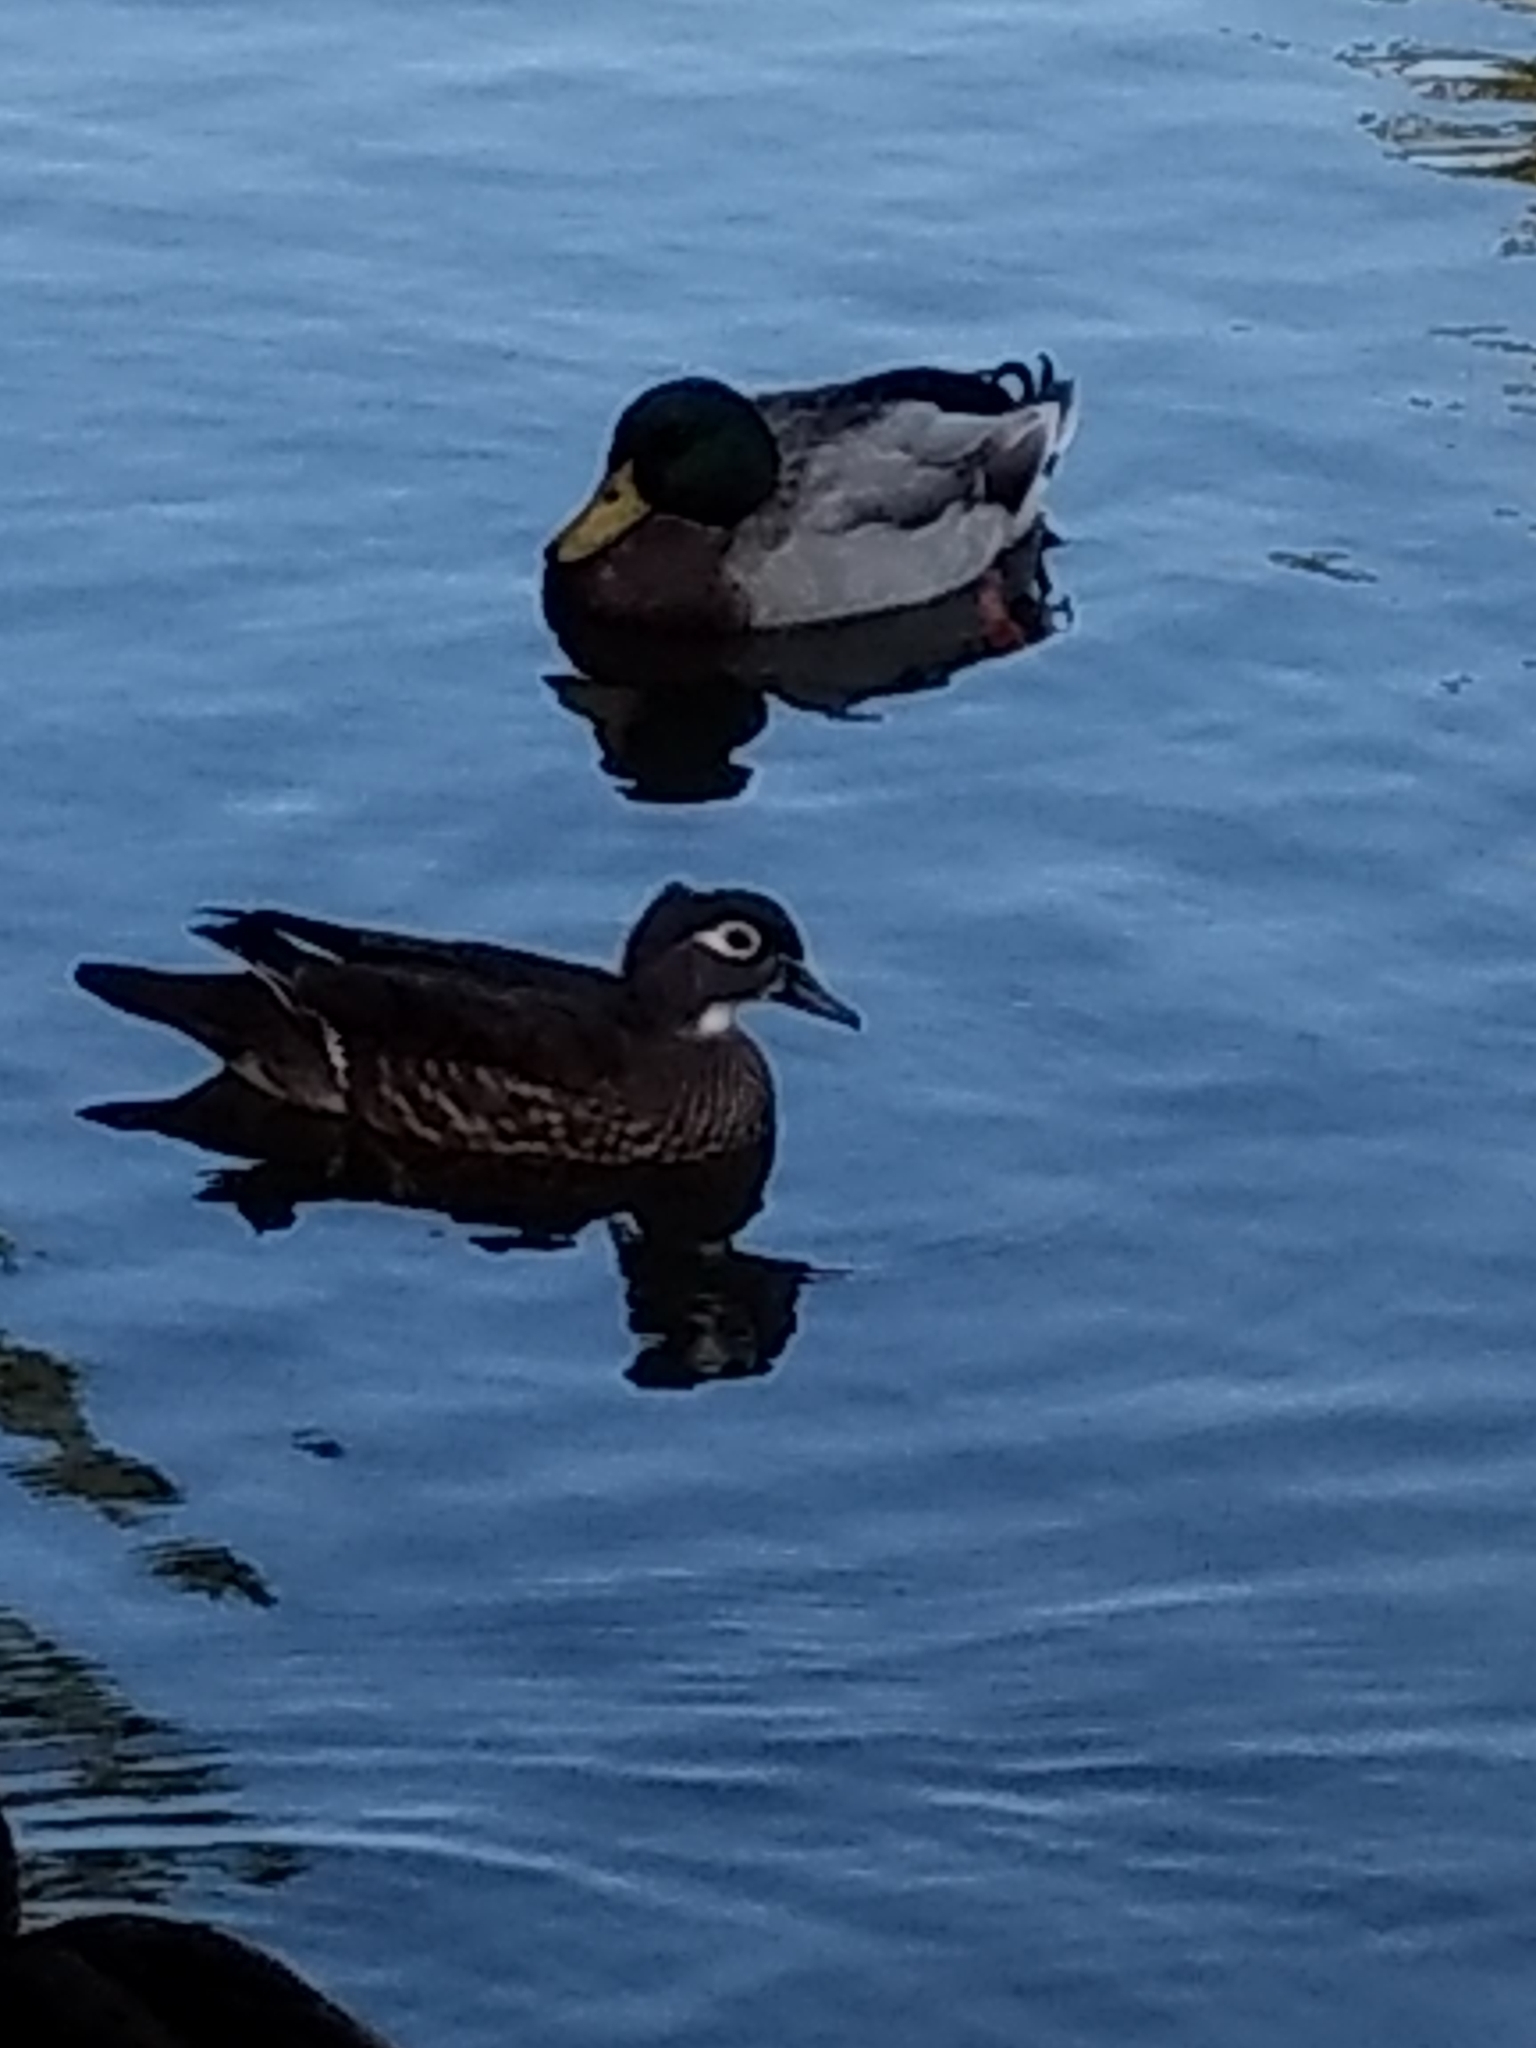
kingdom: Animalia
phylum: Chordata
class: Aves
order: Anseriformes
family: Anatidae
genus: Aix
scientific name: Aix sponsa
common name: Wood duck
